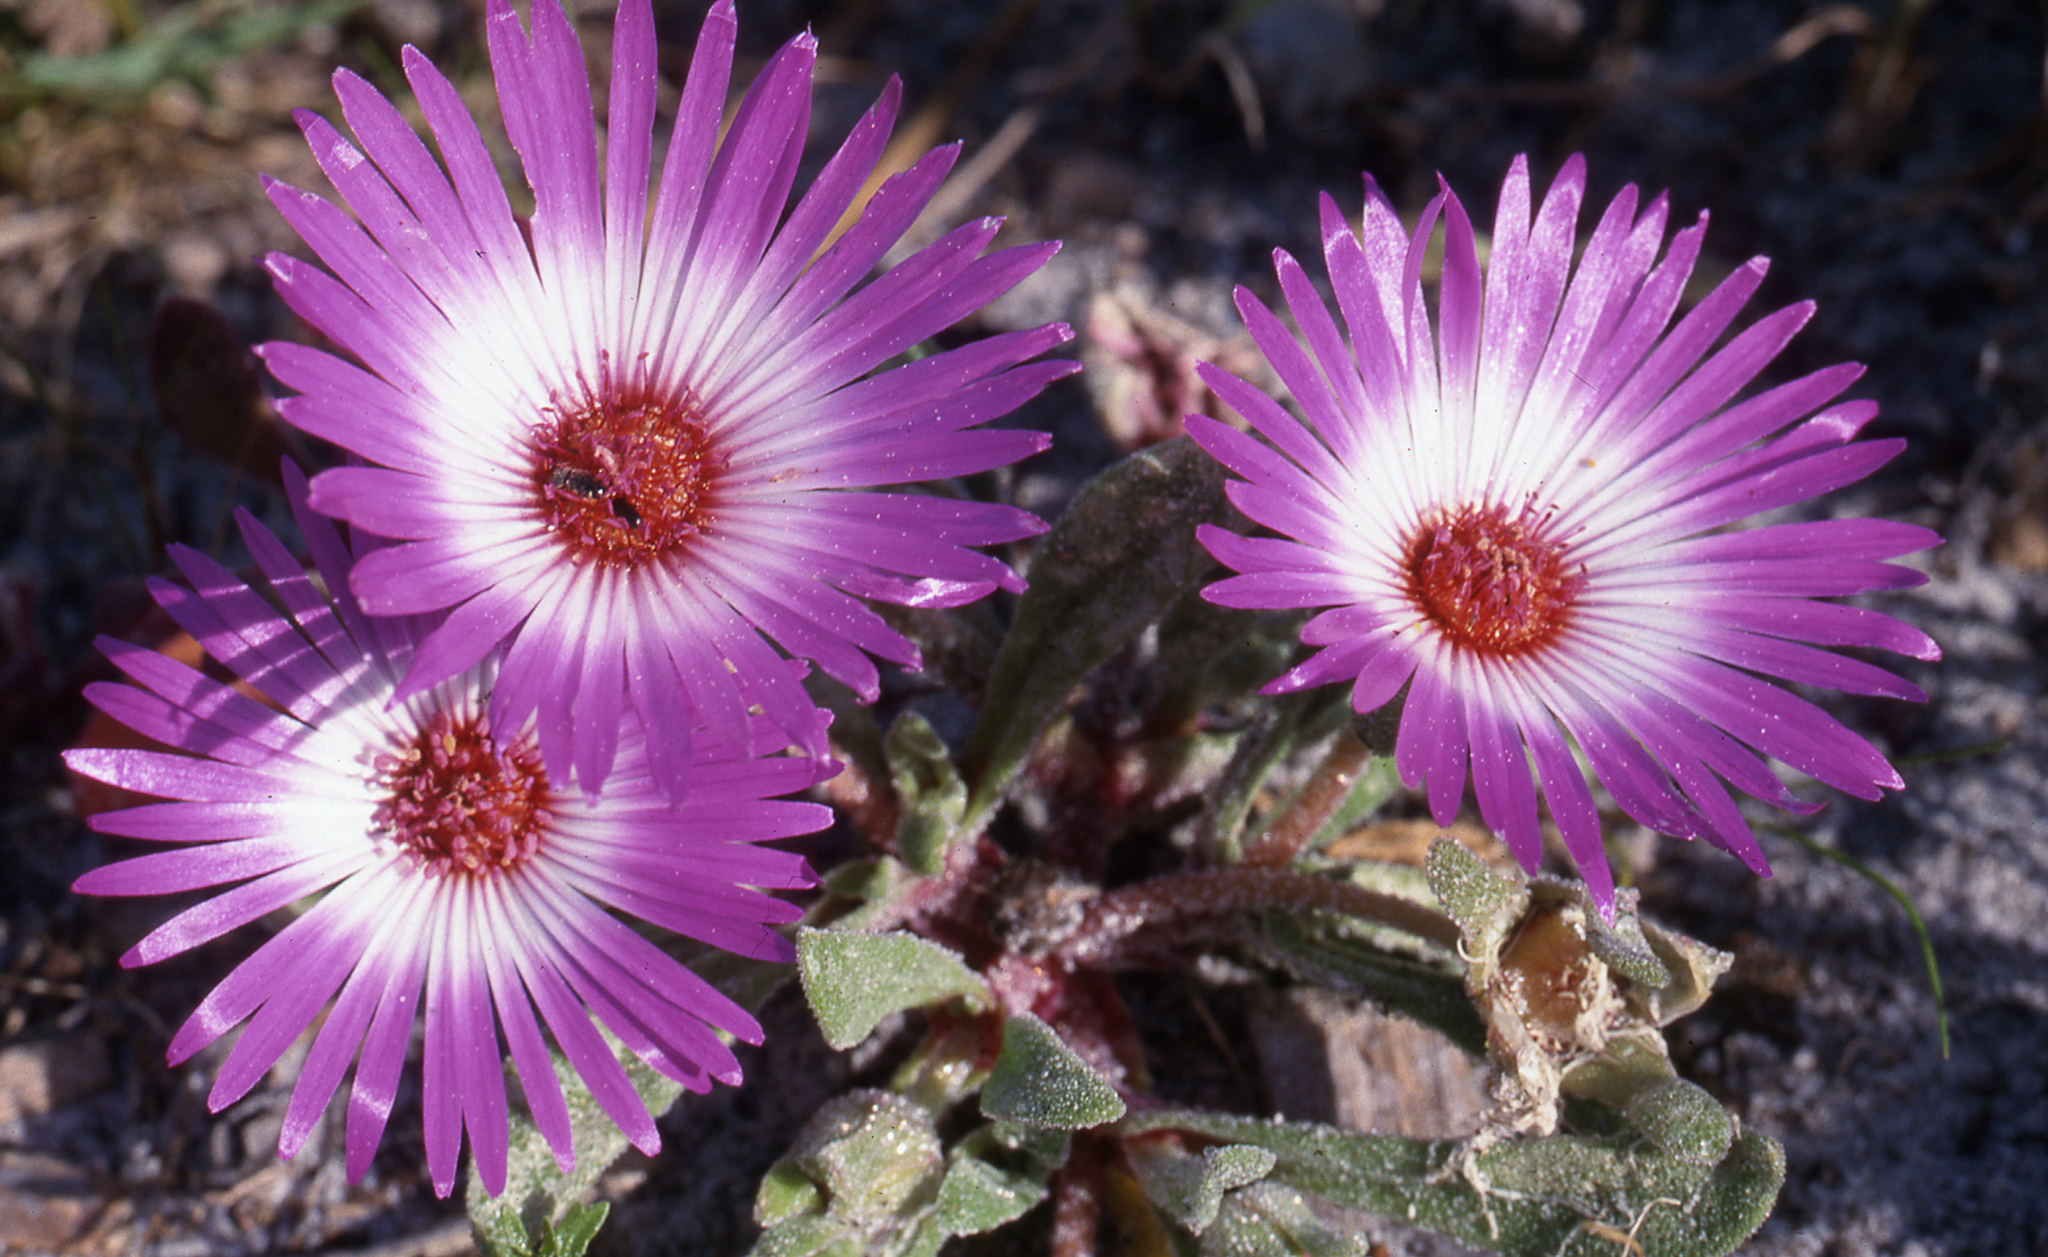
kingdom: Plantae
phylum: Tracheophyta
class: Magnoliopsida
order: Caryophyllales
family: Aizoaceae
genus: Cleretum
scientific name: Cleretum bellidiforme
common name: Livingstone daisy
